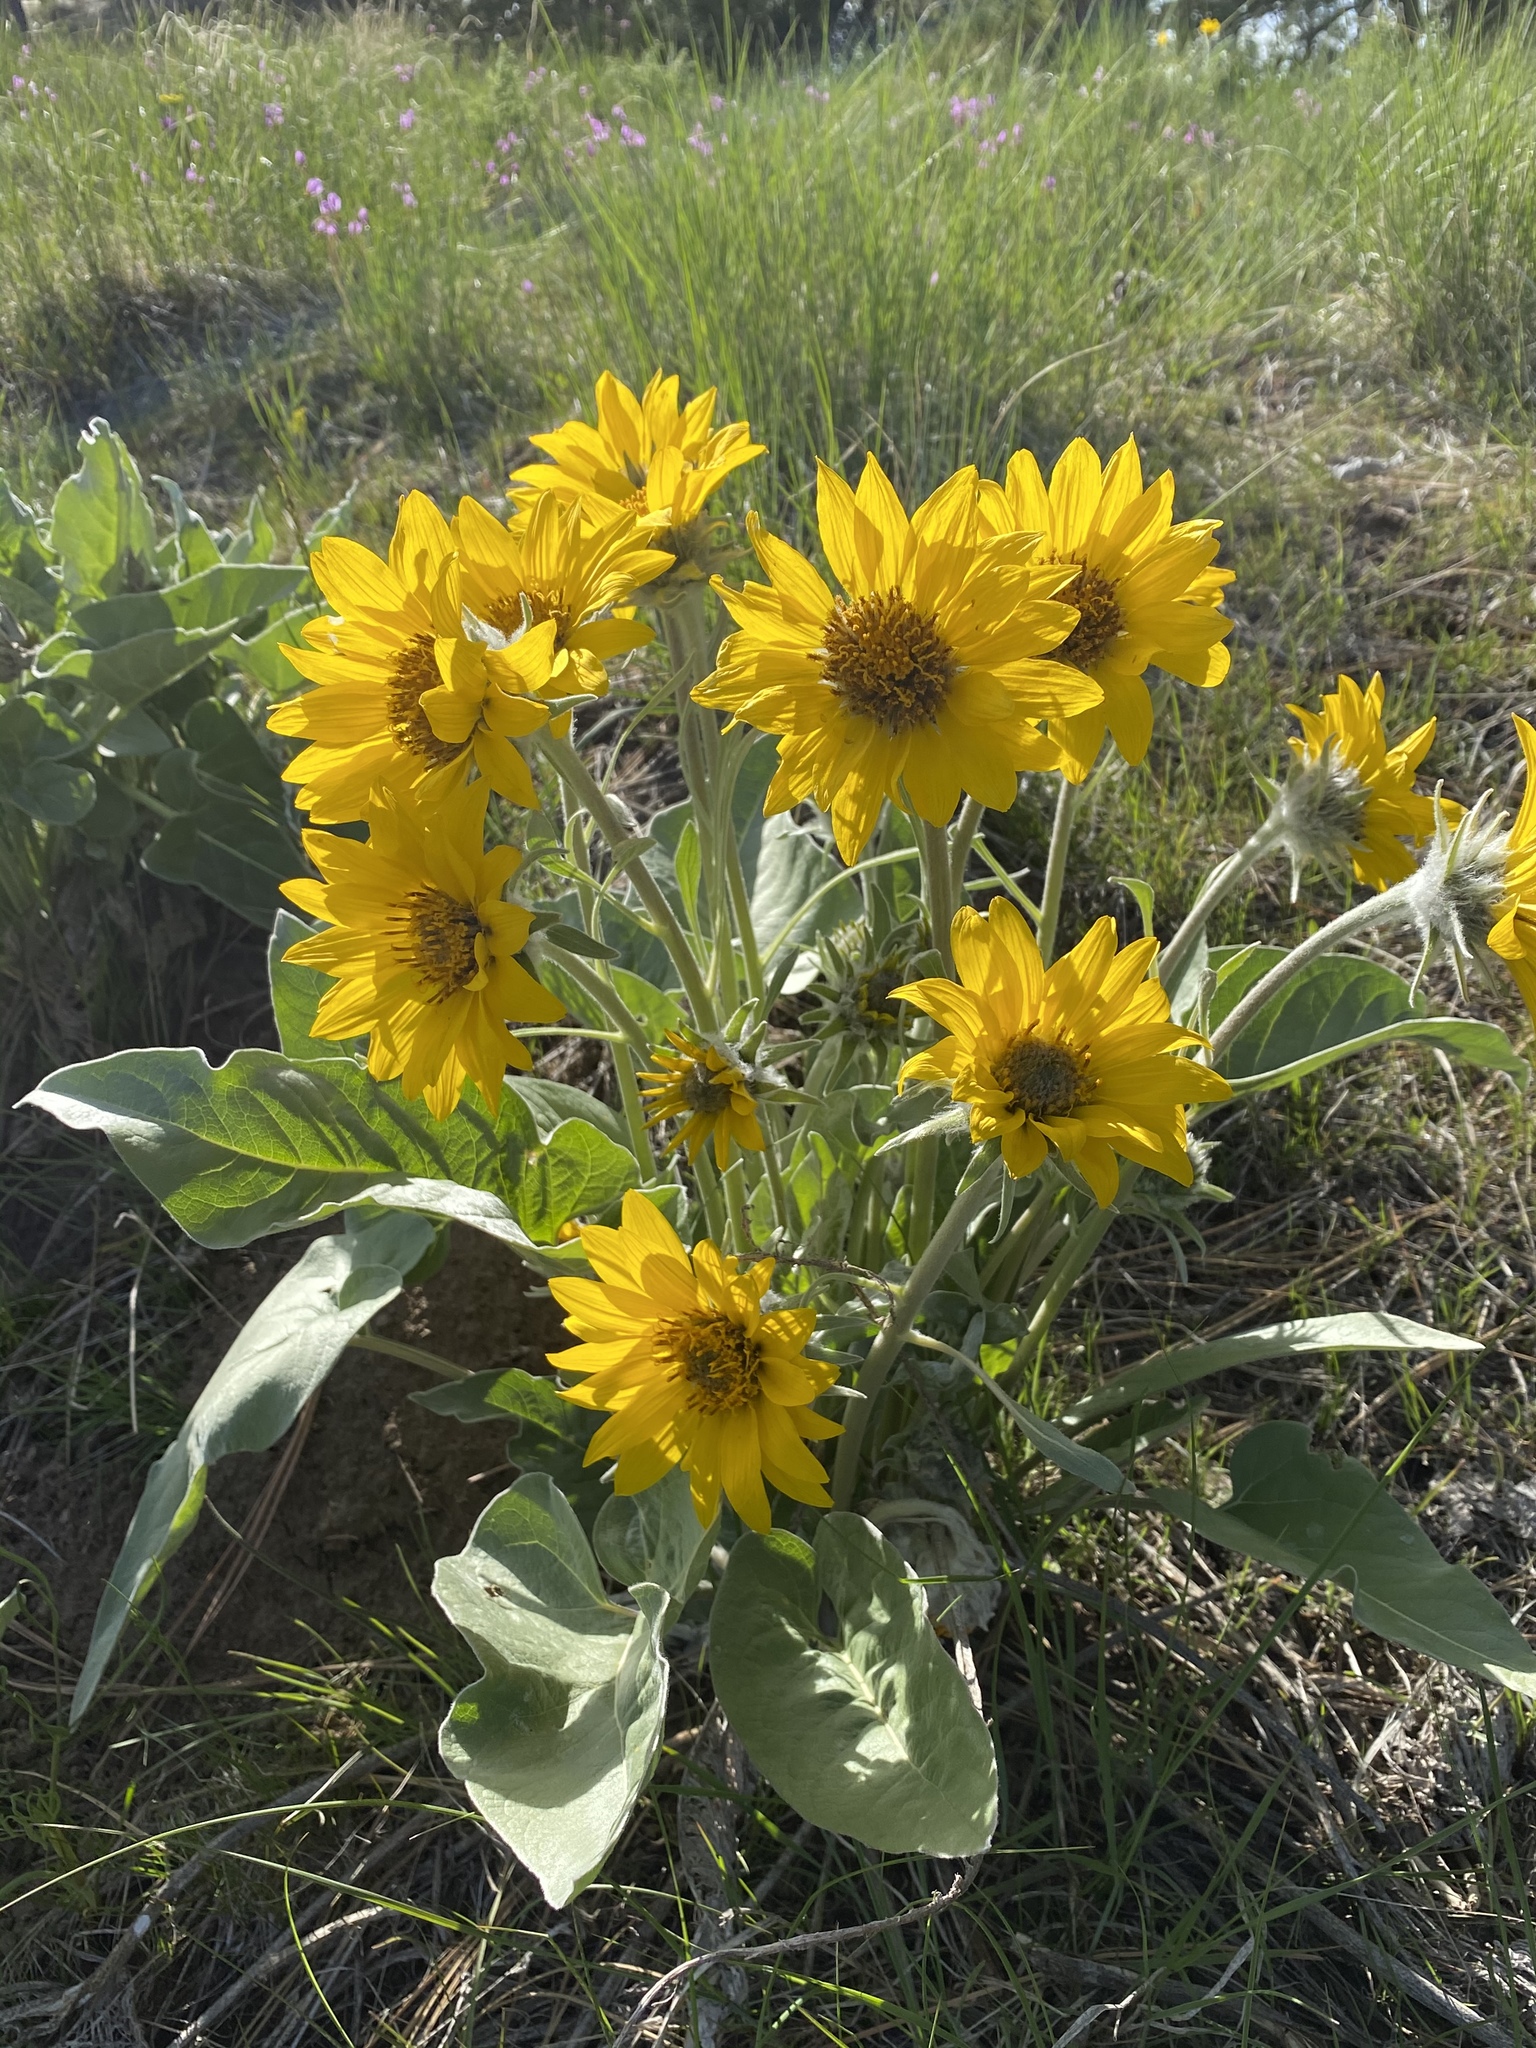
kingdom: Plantae
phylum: Tracheophyta
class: Magnoliopsida
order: Asterales
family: Asteraceae
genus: Wyethia
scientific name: Wyethia sagittata
